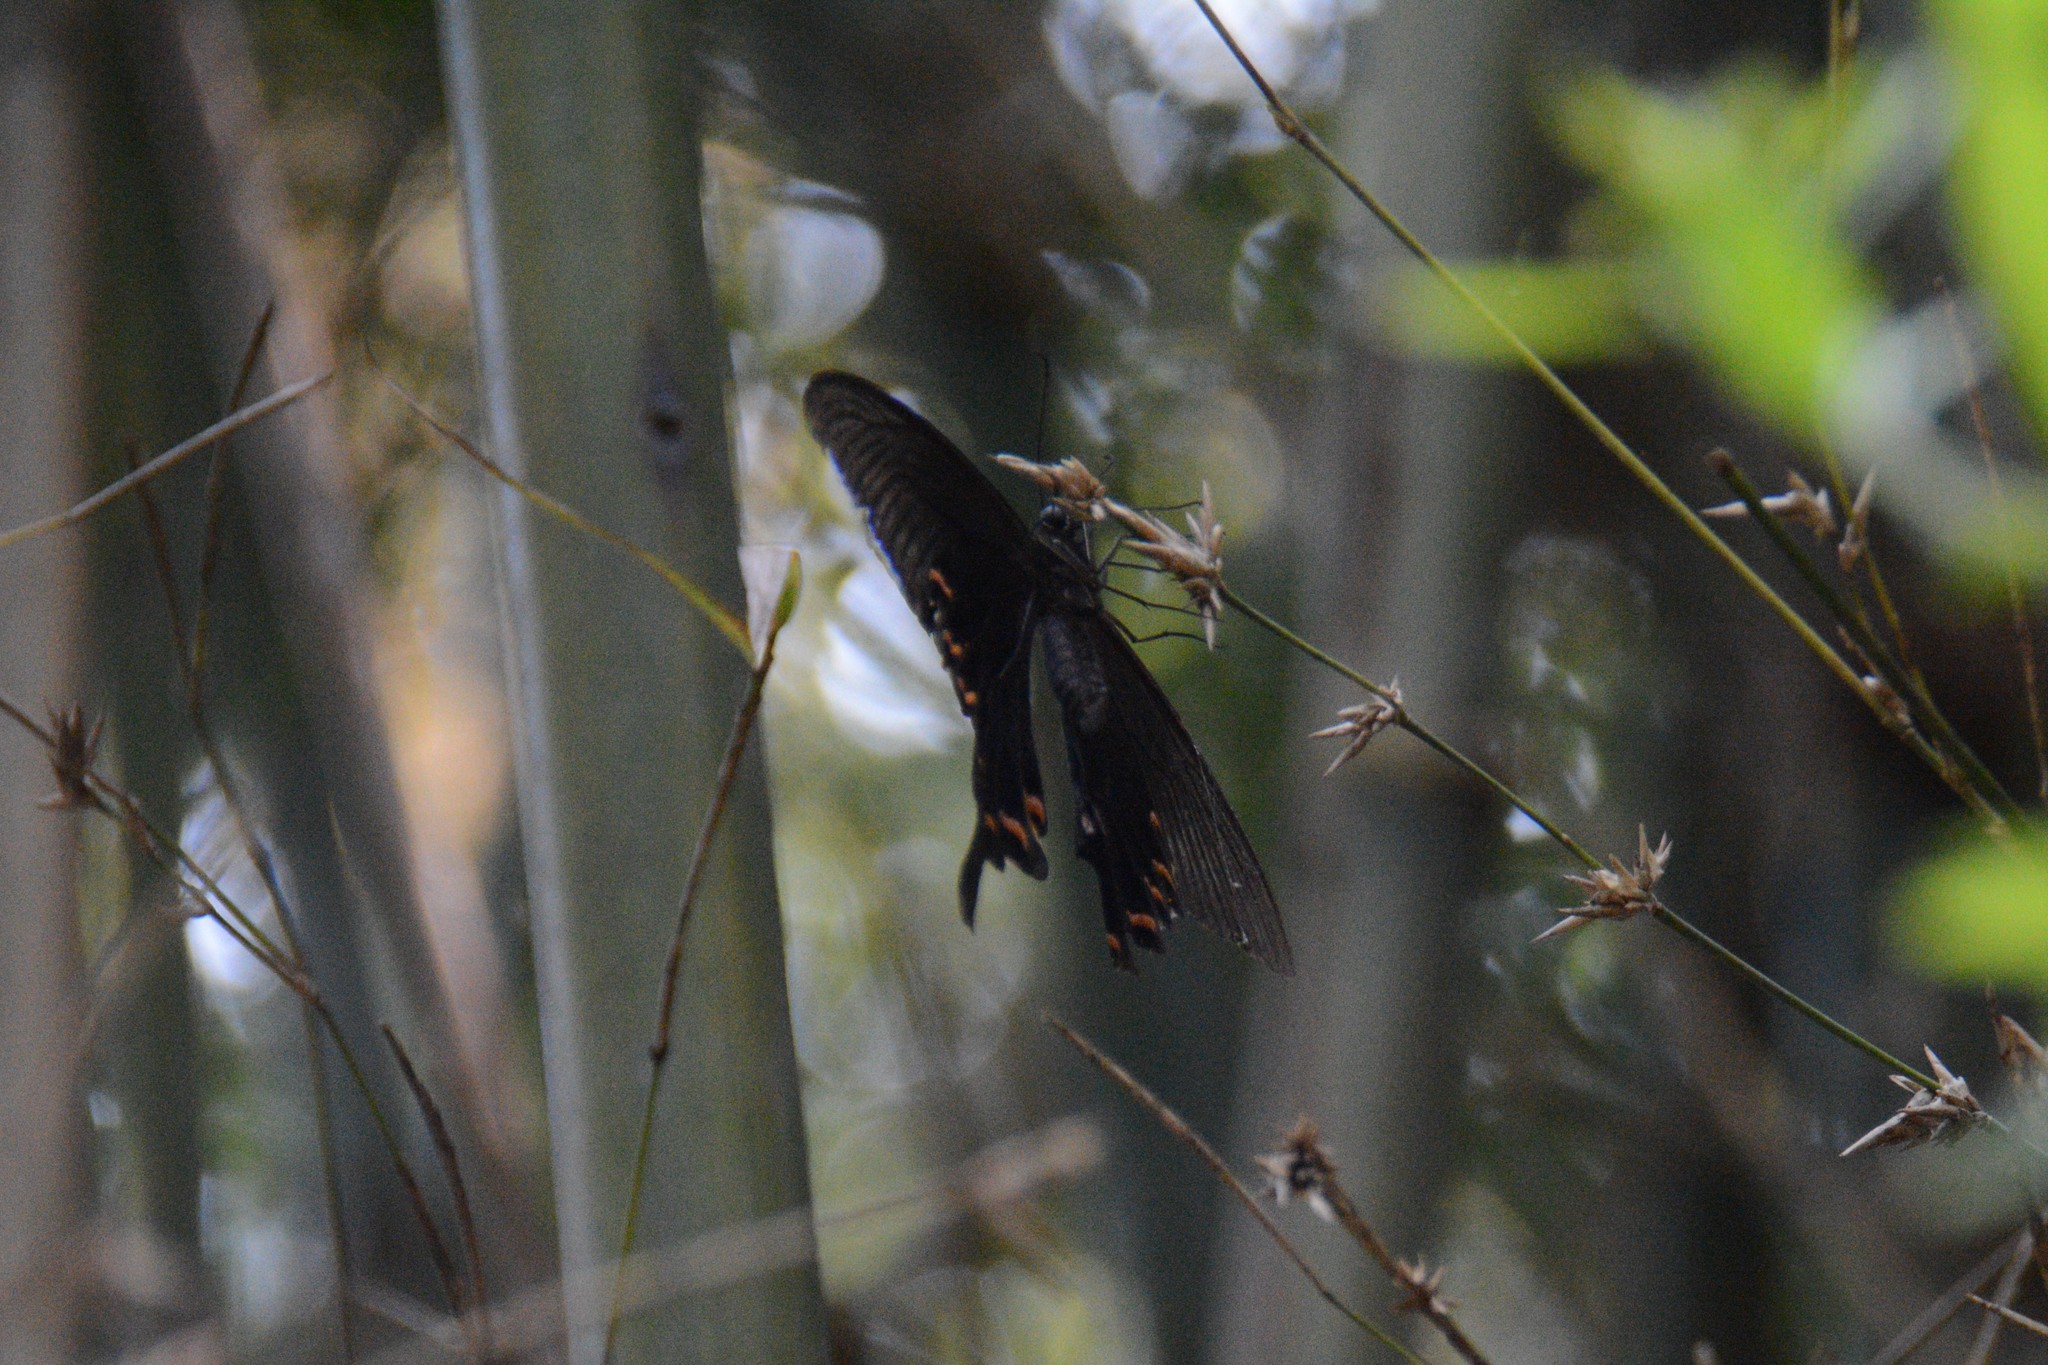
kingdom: Animalia
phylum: Arthropoda
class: Insecta
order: Lepidoptera
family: Papilionidae
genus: Papilio
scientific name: Papilio bianor
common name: Common peacock
